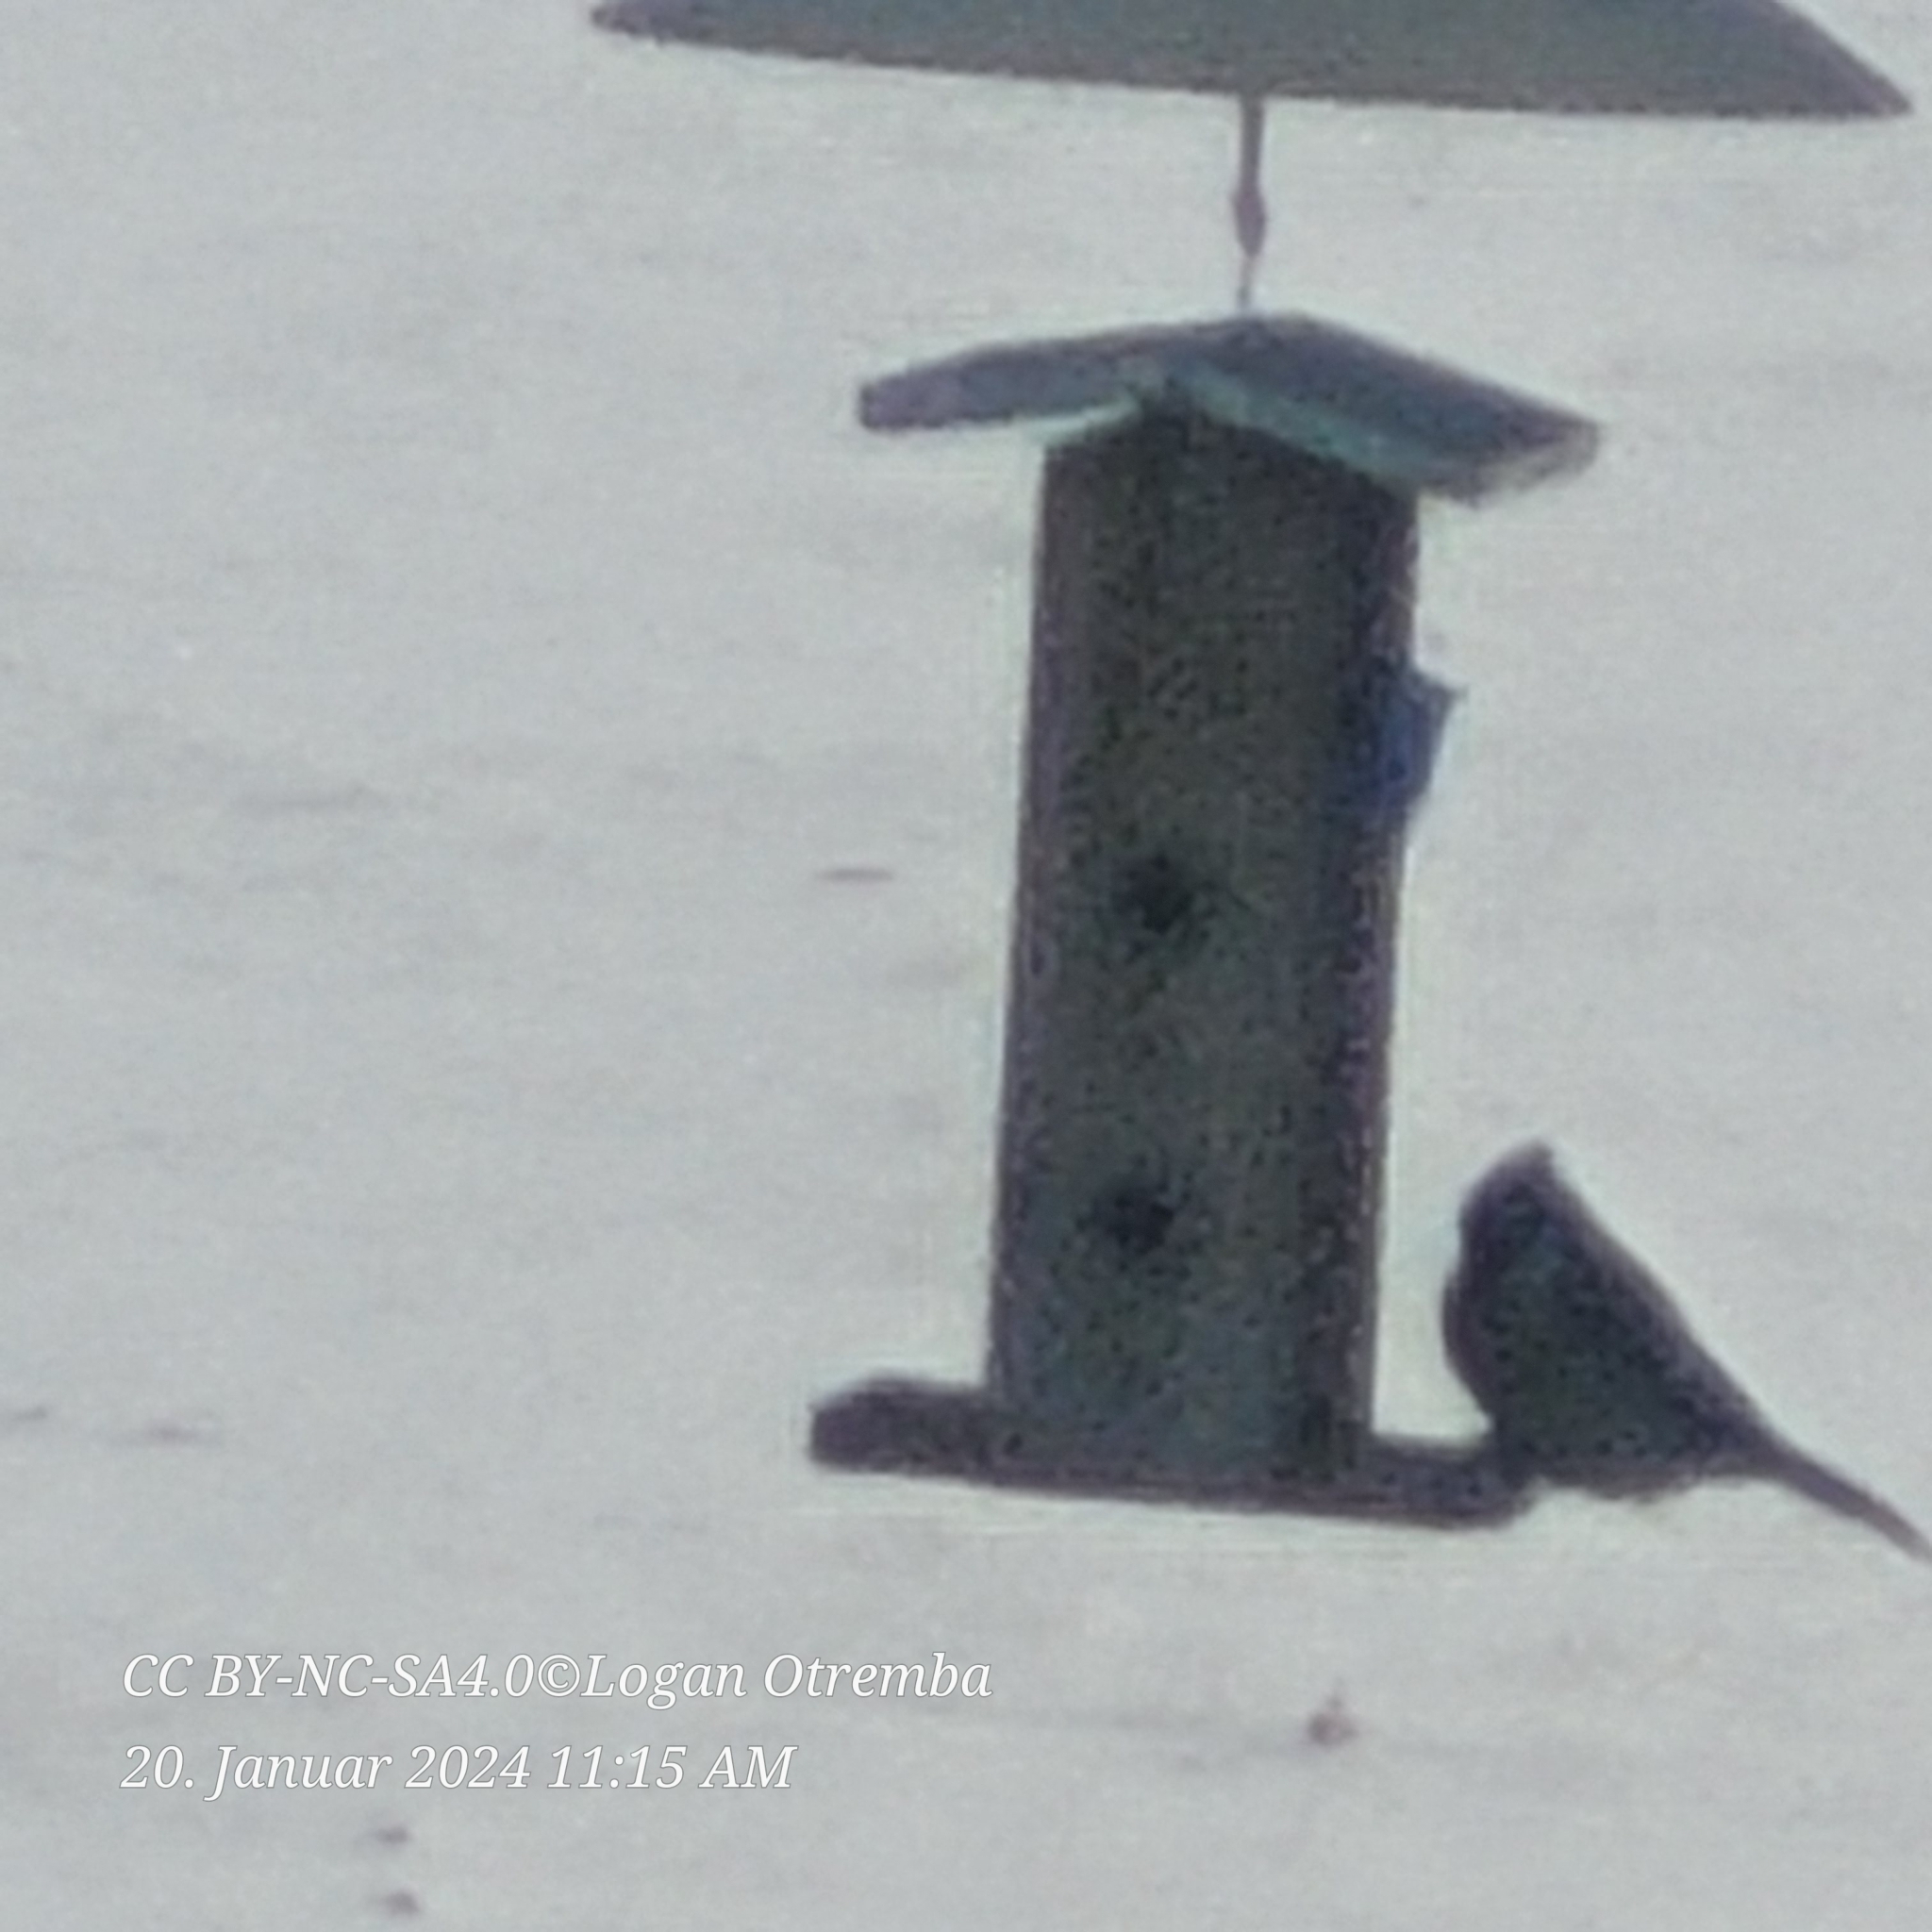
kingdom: Animalia
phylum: Chordata
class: Aves
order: Passeriformes
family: Corvidae
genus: Cyanocitta
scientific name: Cyanocitta cristata
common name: Blue jay
